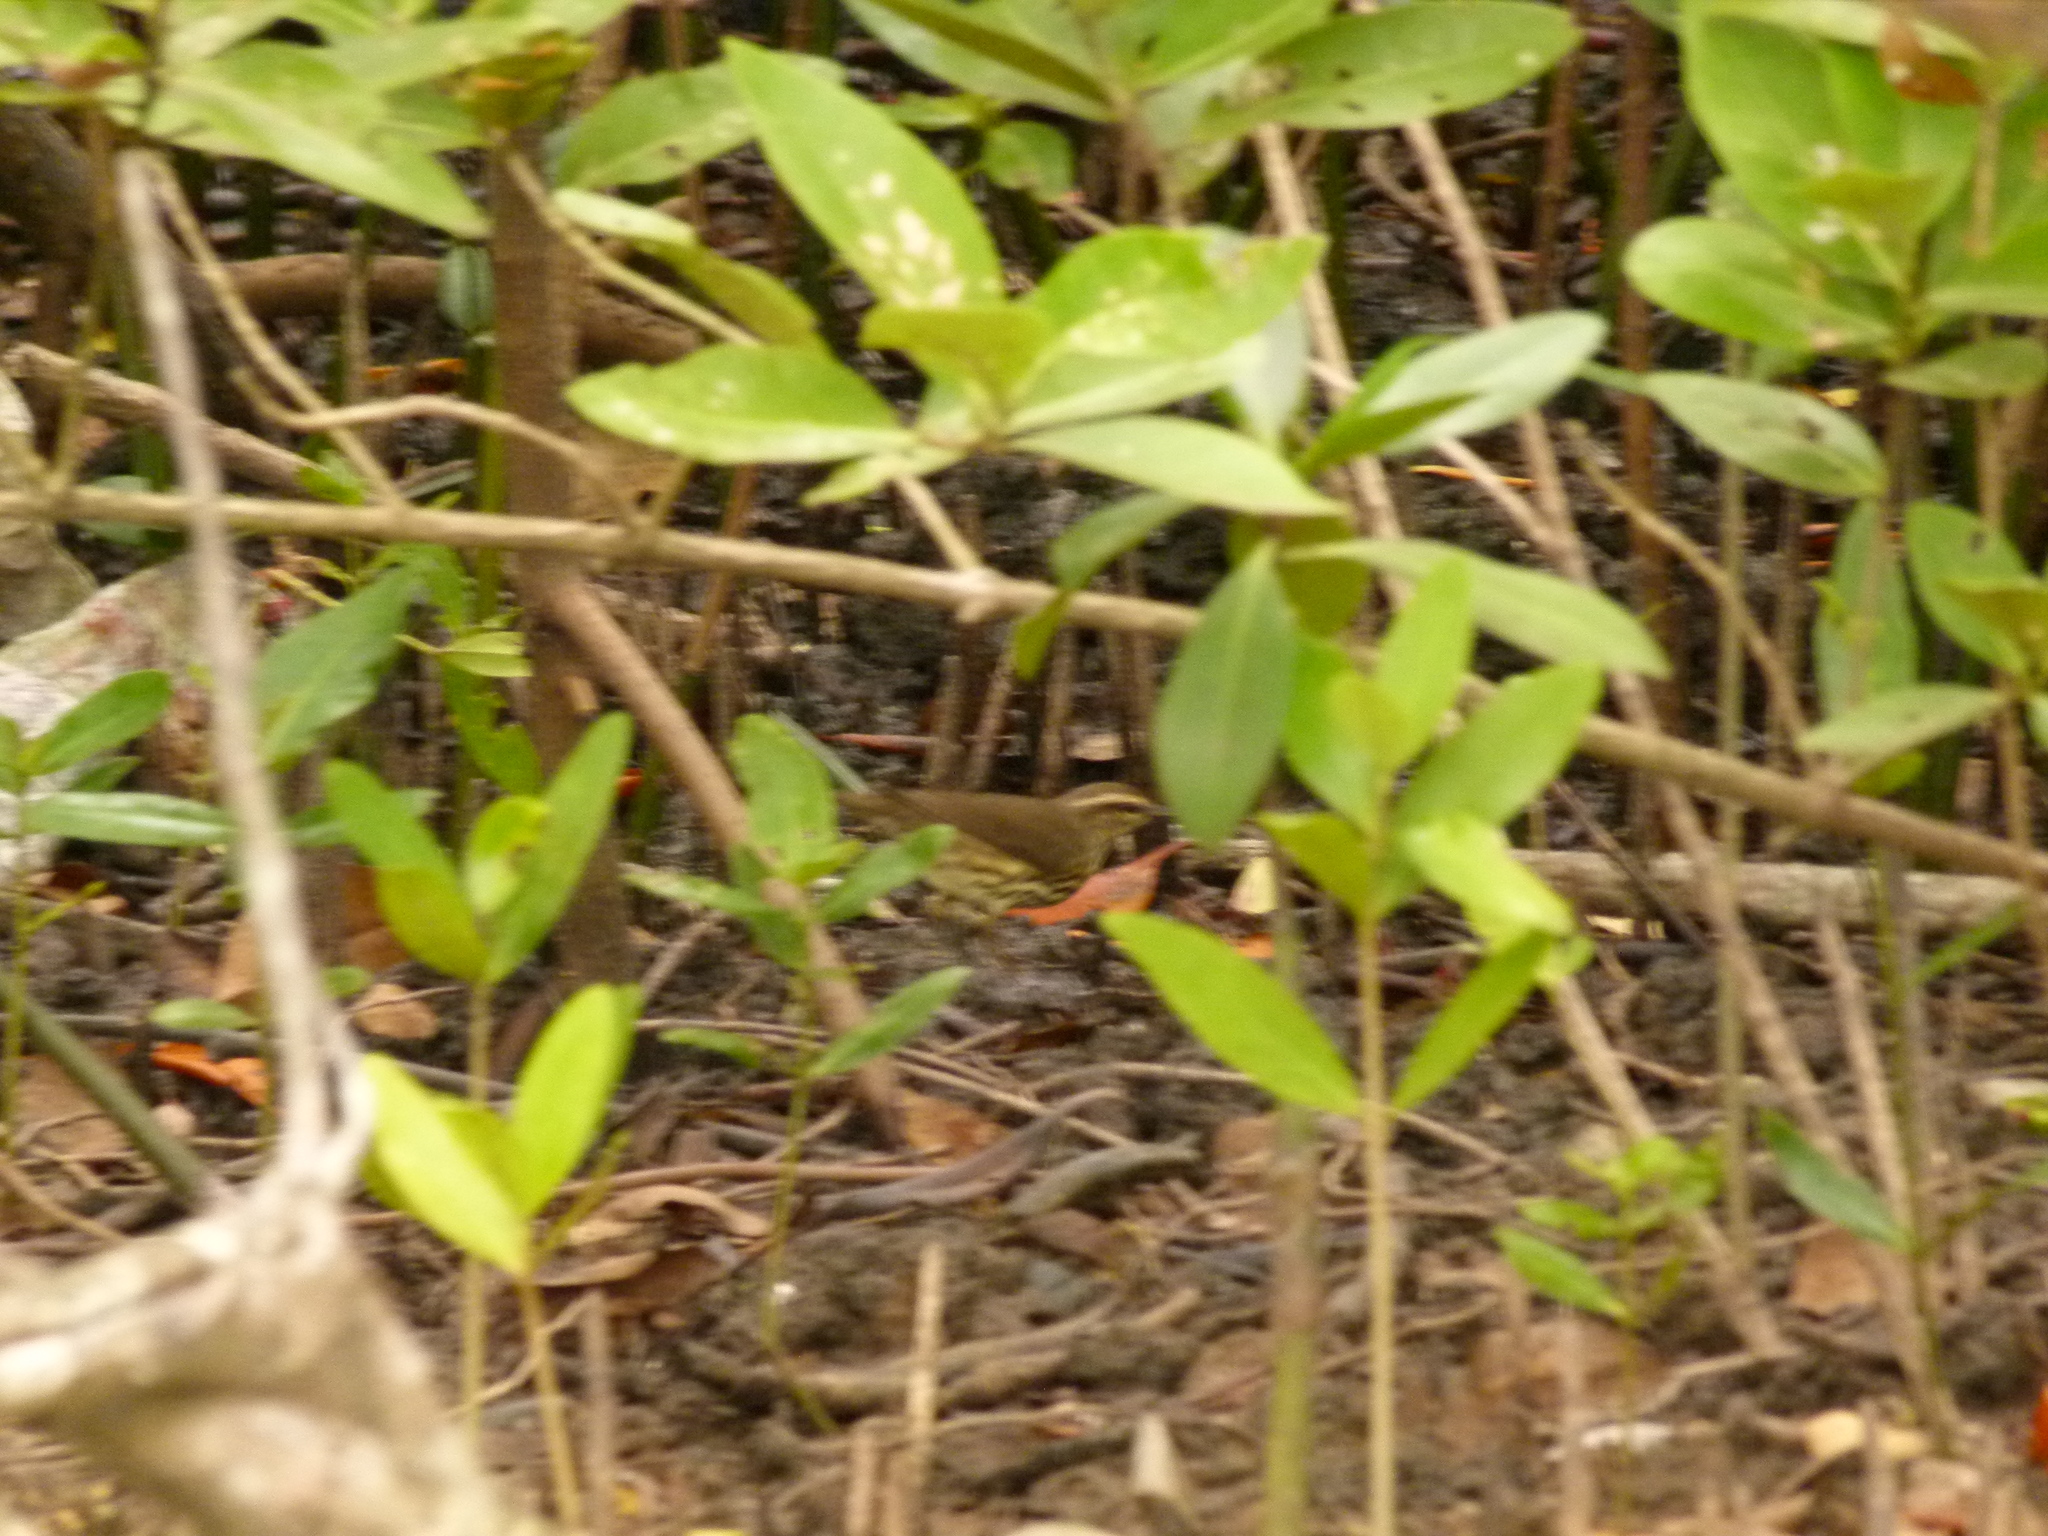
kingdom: Animalia
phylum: Chordata
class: Aves
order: Passeriformes
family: Parulidae
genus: Parkesia
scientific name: Parkesia noveboracensis
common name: Northern waterthrush
